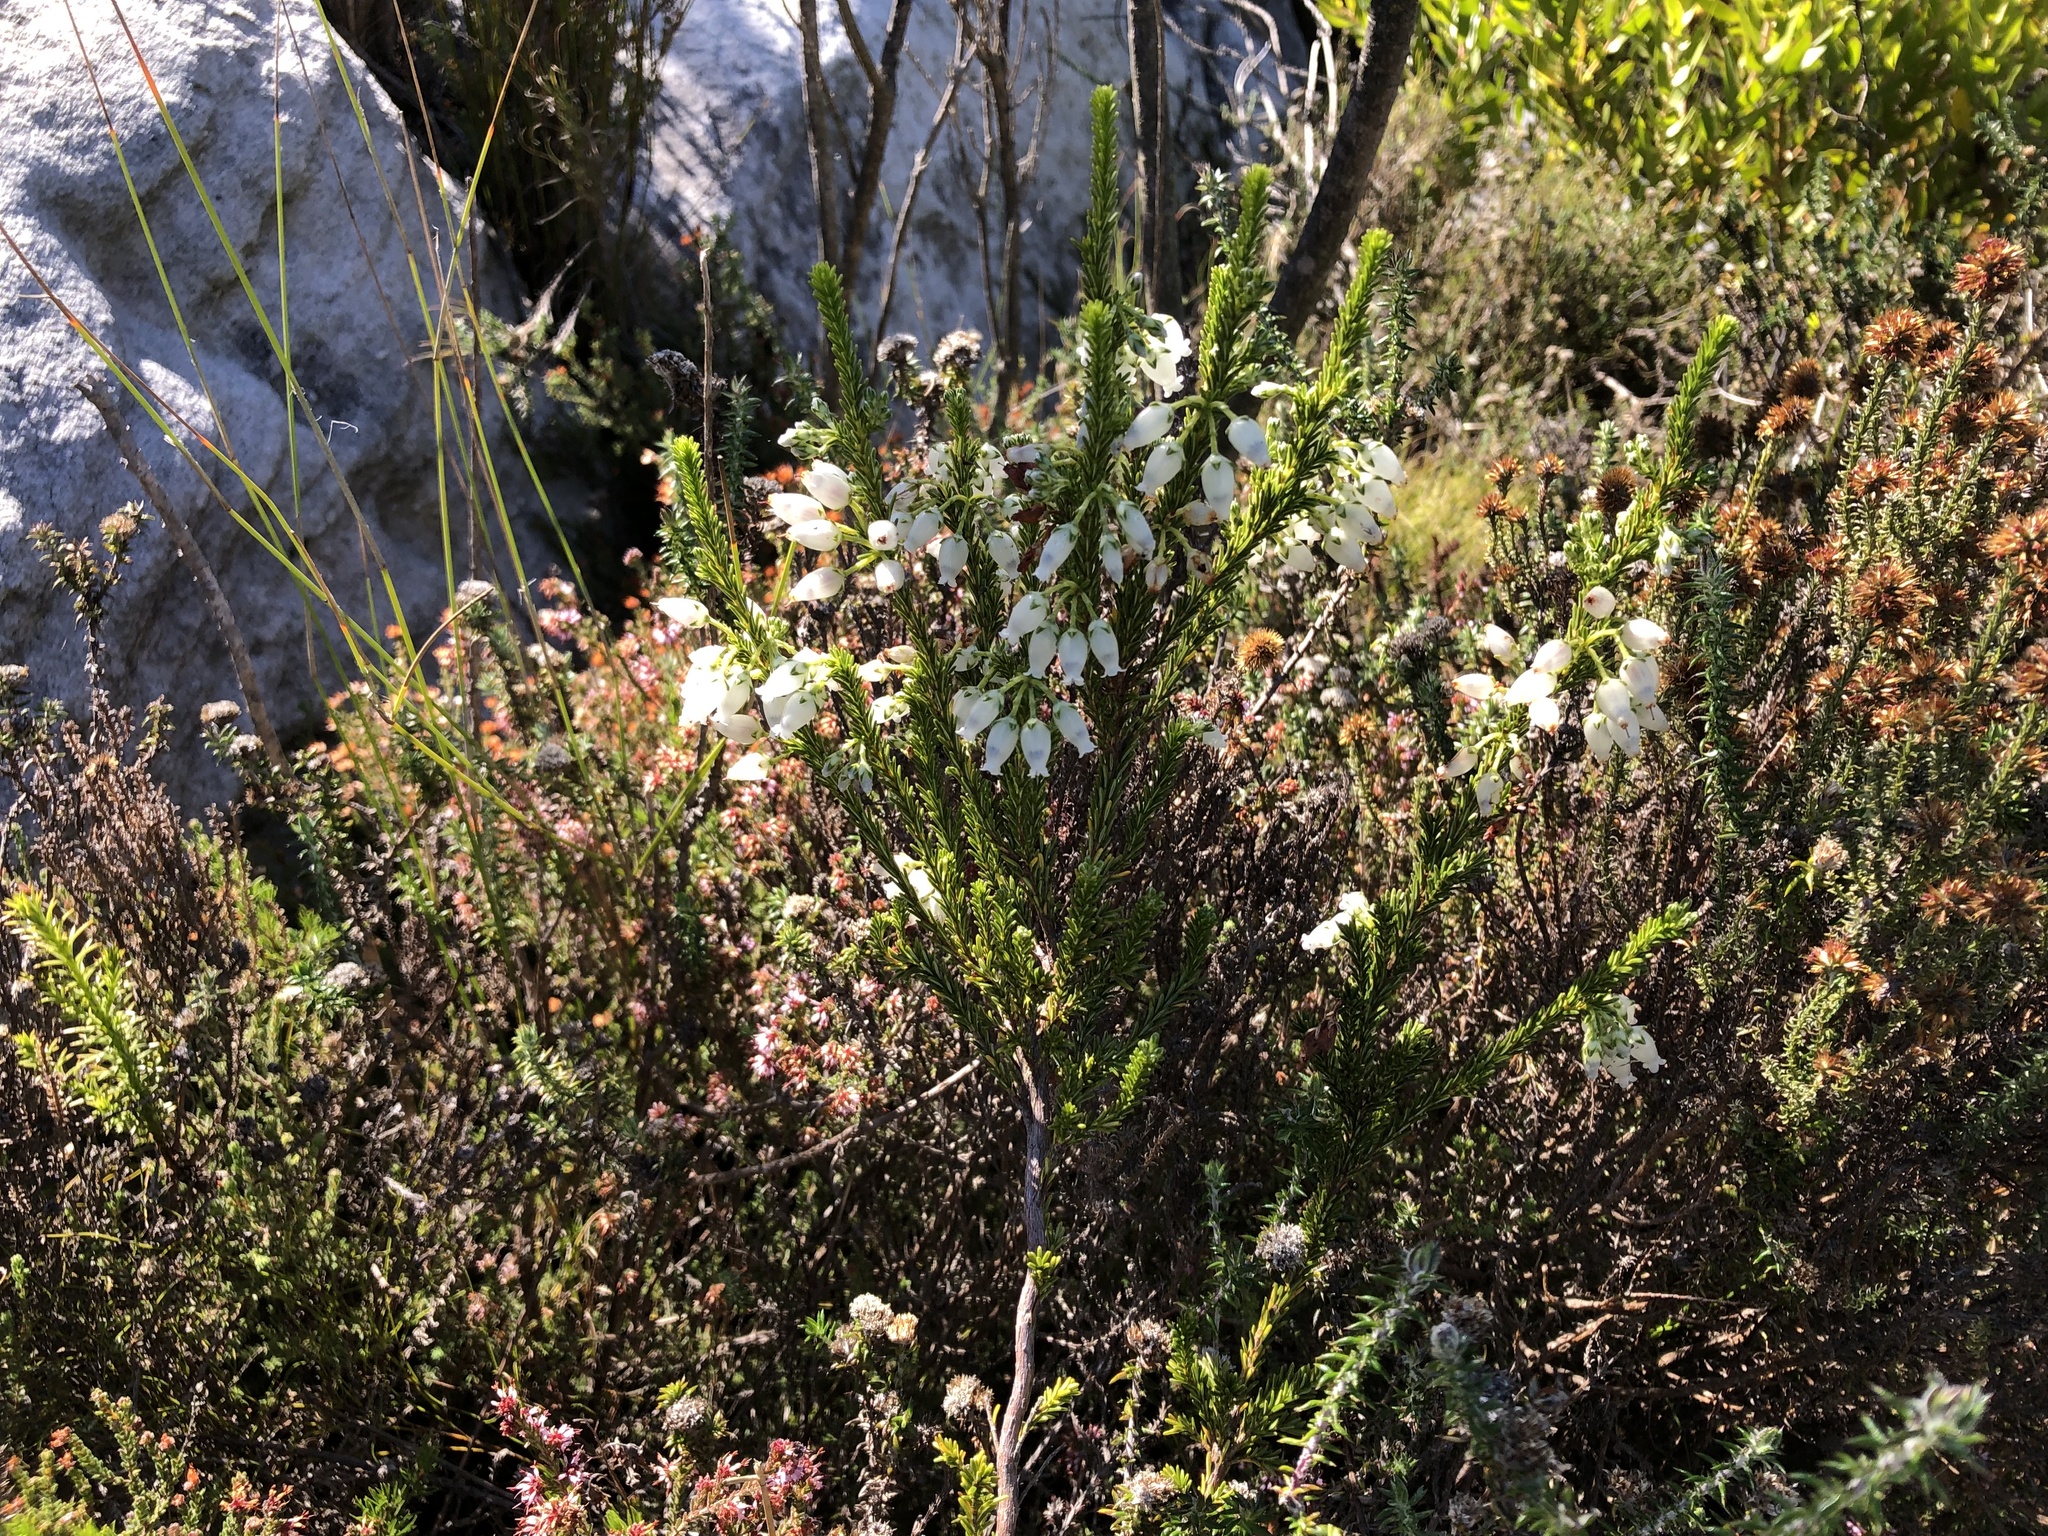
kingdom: Plantae
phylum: Tracheophyta
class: Magnoliopsida
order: Ericales
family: Ericaceae
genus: Erica
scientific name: Erica physodes
